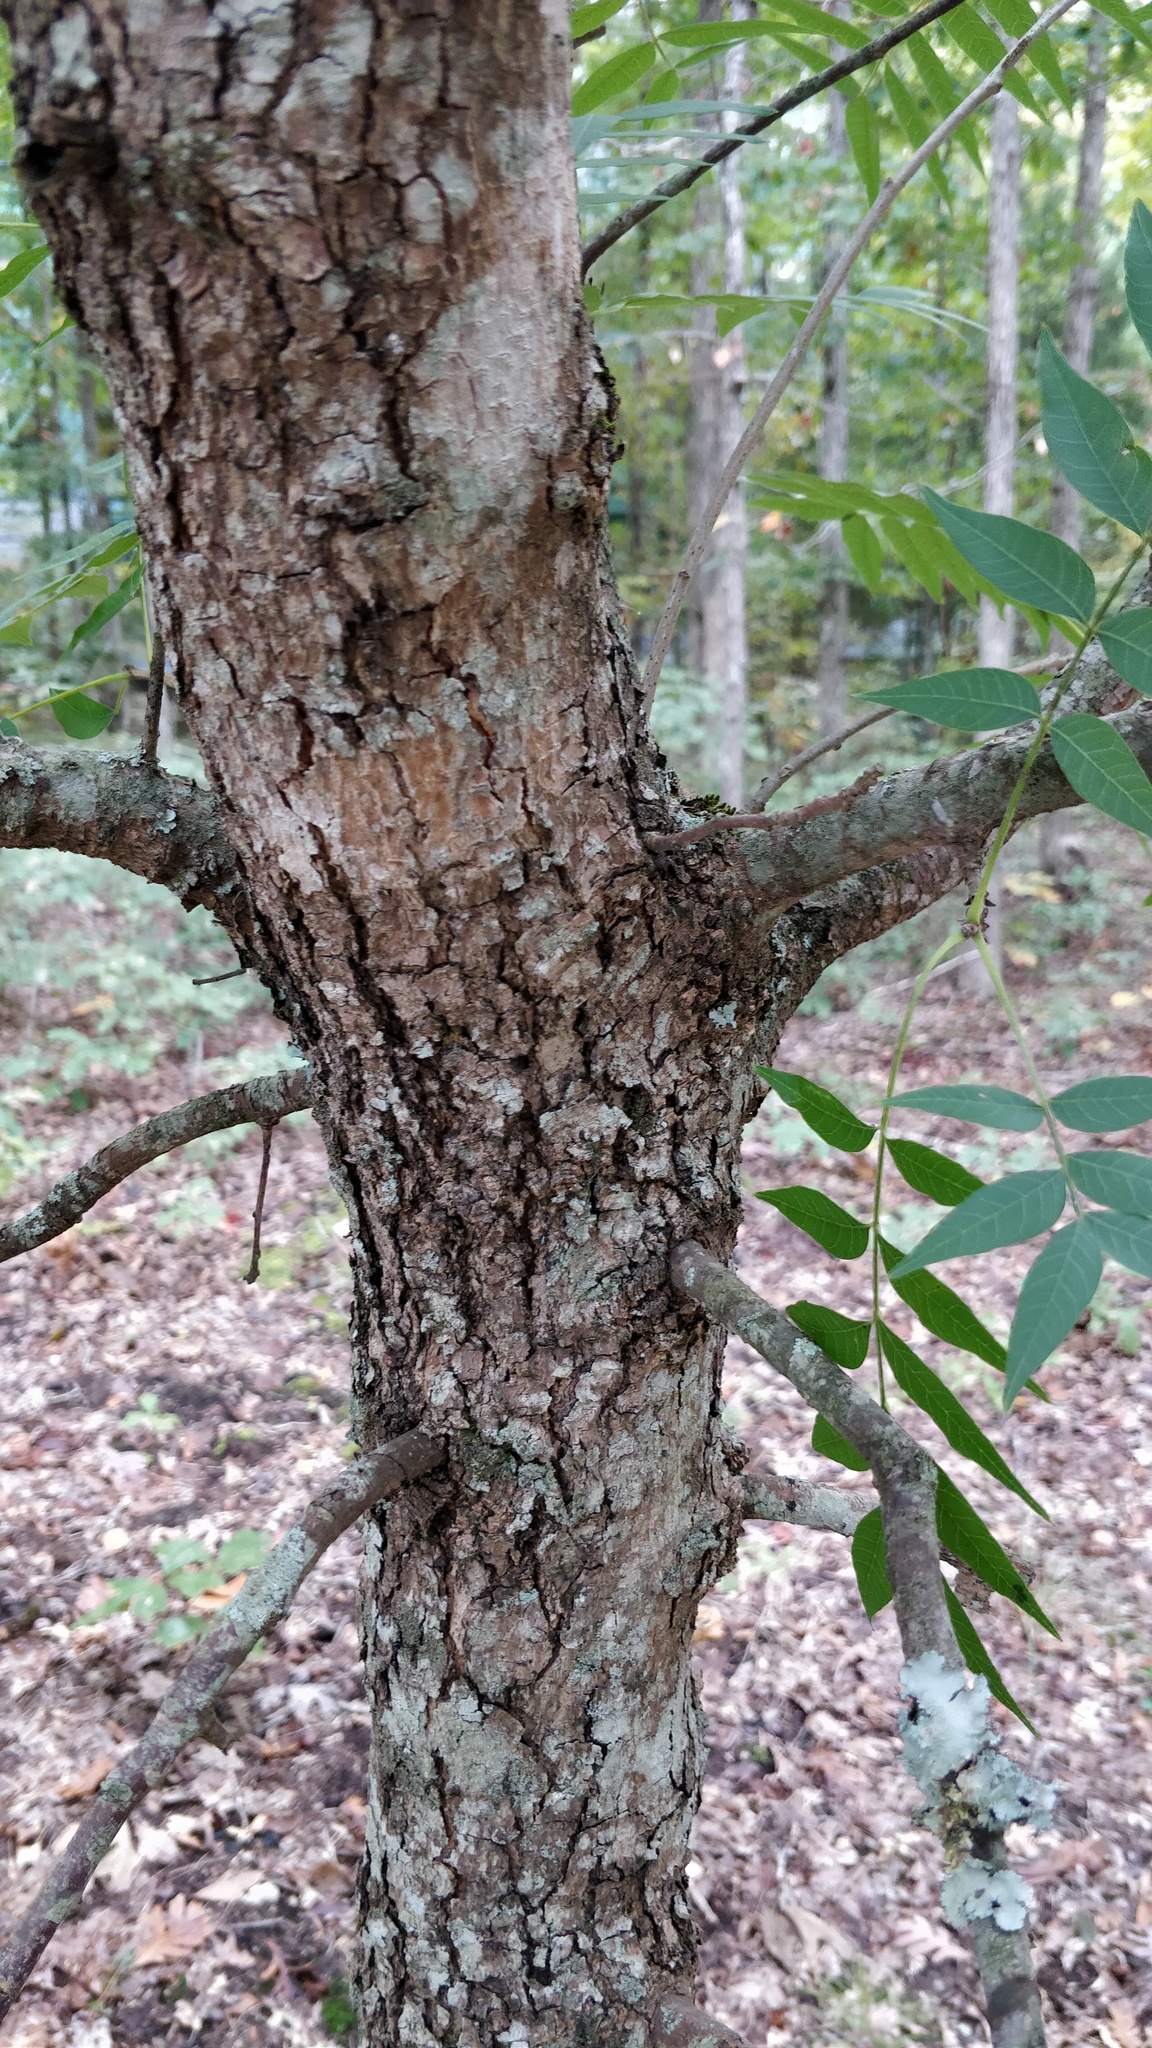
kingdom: Plantae
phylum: Tracheophyta
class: Magnoliopsida
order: Sapindales
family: Anacardiaceae
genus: Pistacia
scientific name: Pistacia chinensis
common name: Chinese pistache
